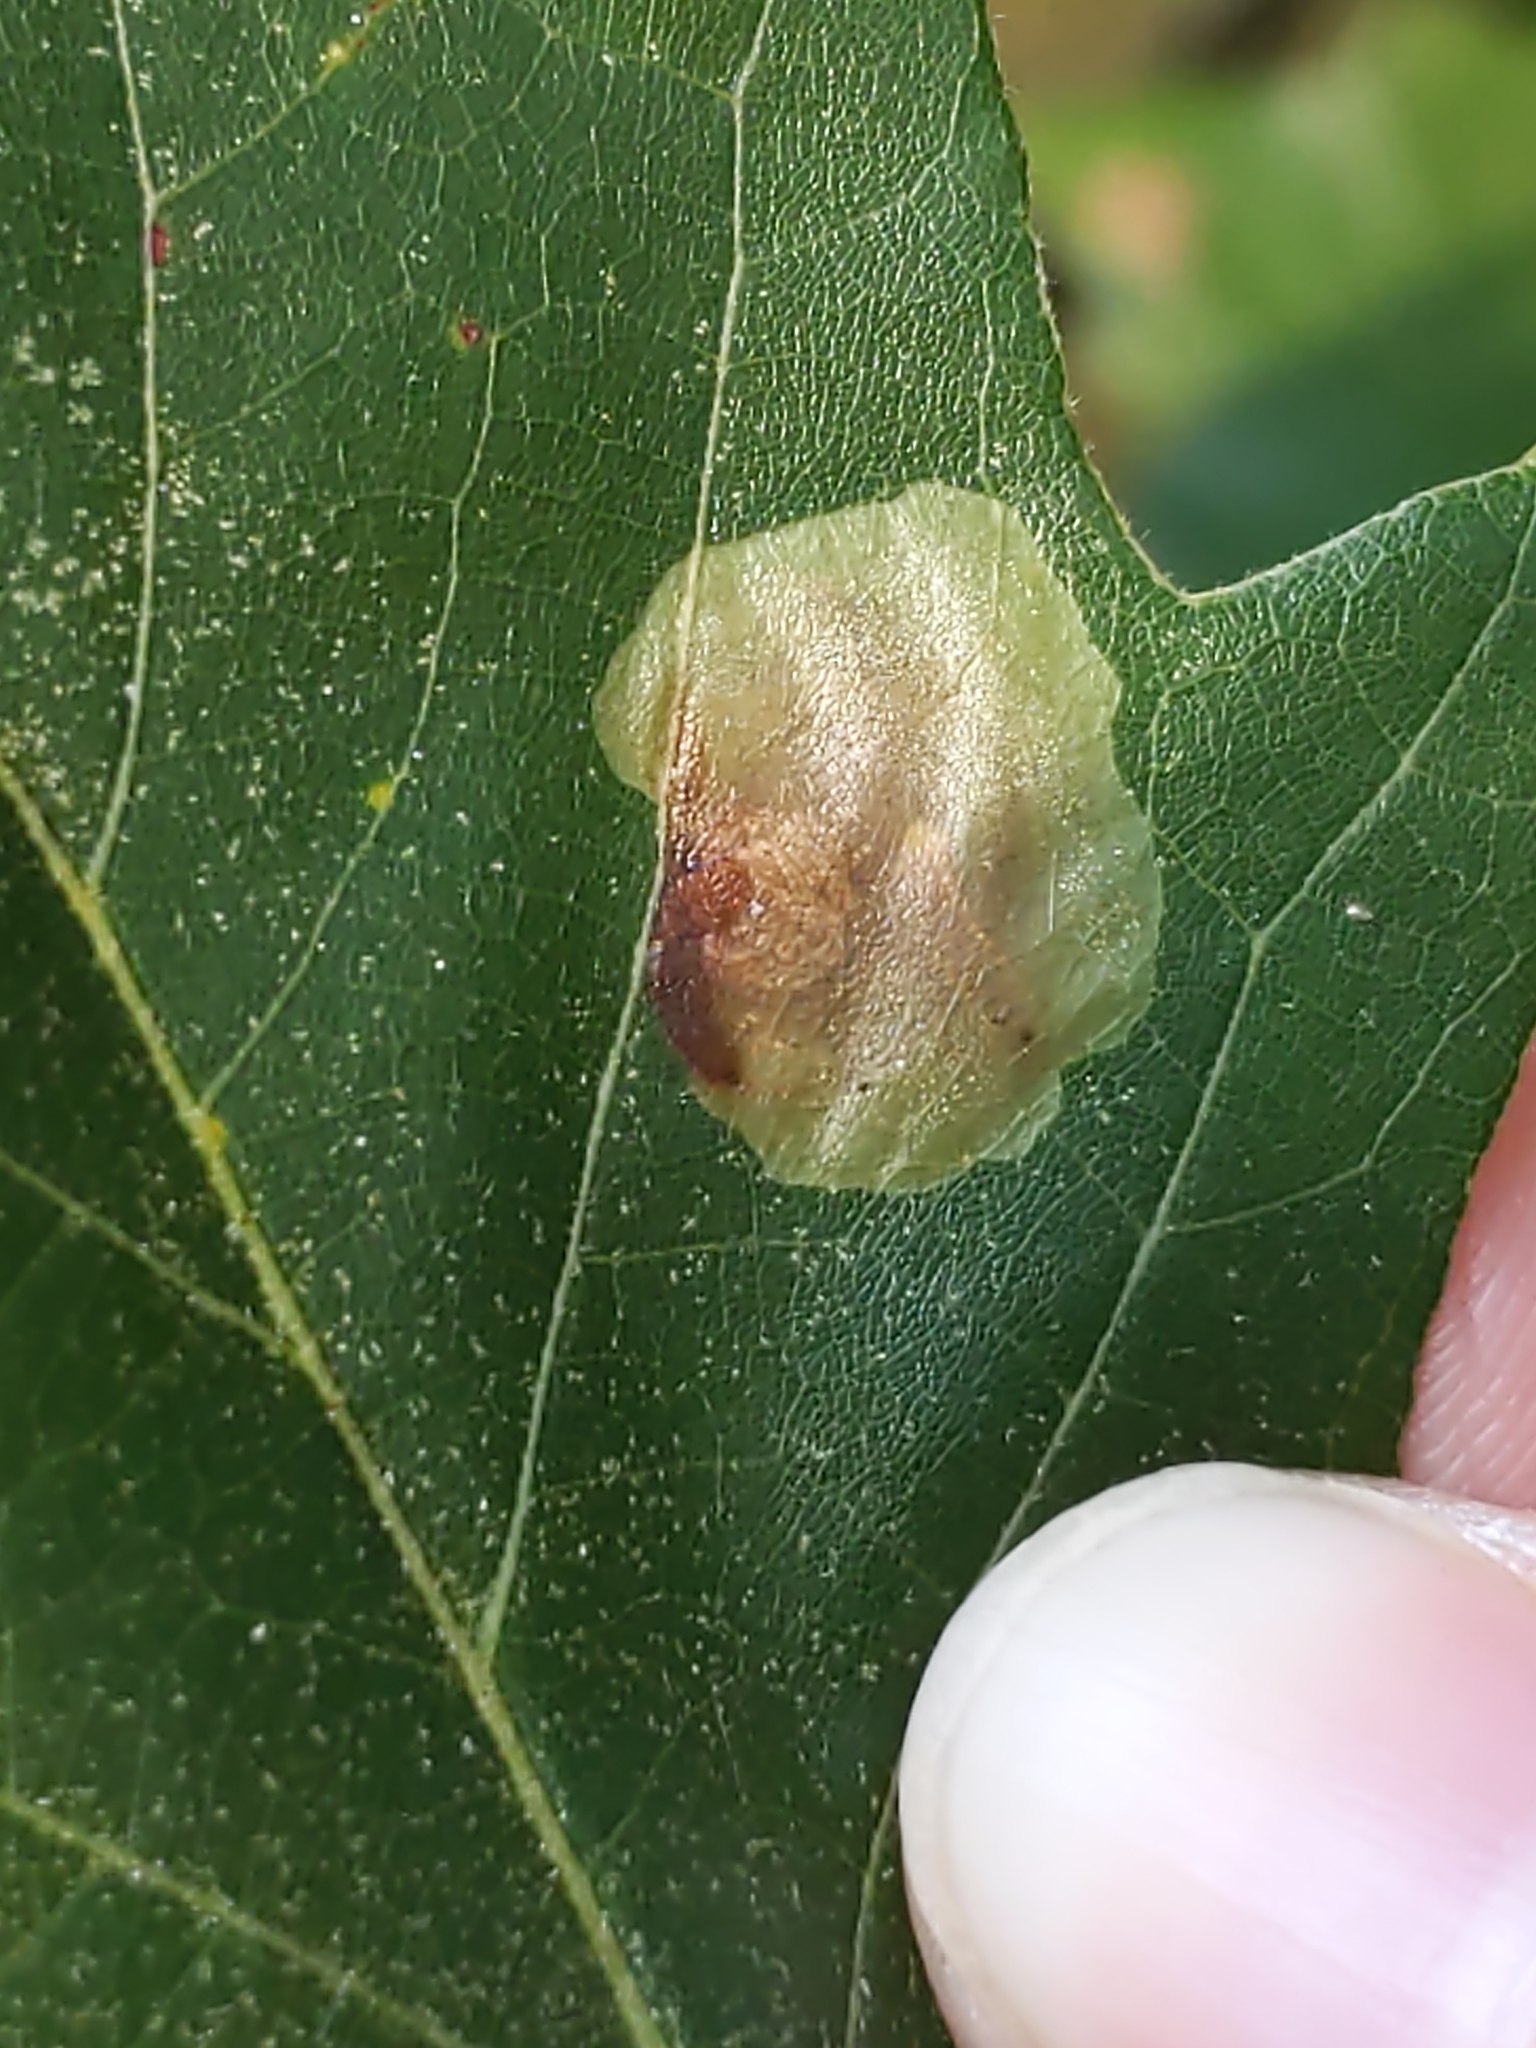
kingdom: Animalia
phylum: Arthropoda
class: Insecta
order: Lepidoptera
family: Gracillariidae
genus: Cameraria
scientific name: Cameraria
